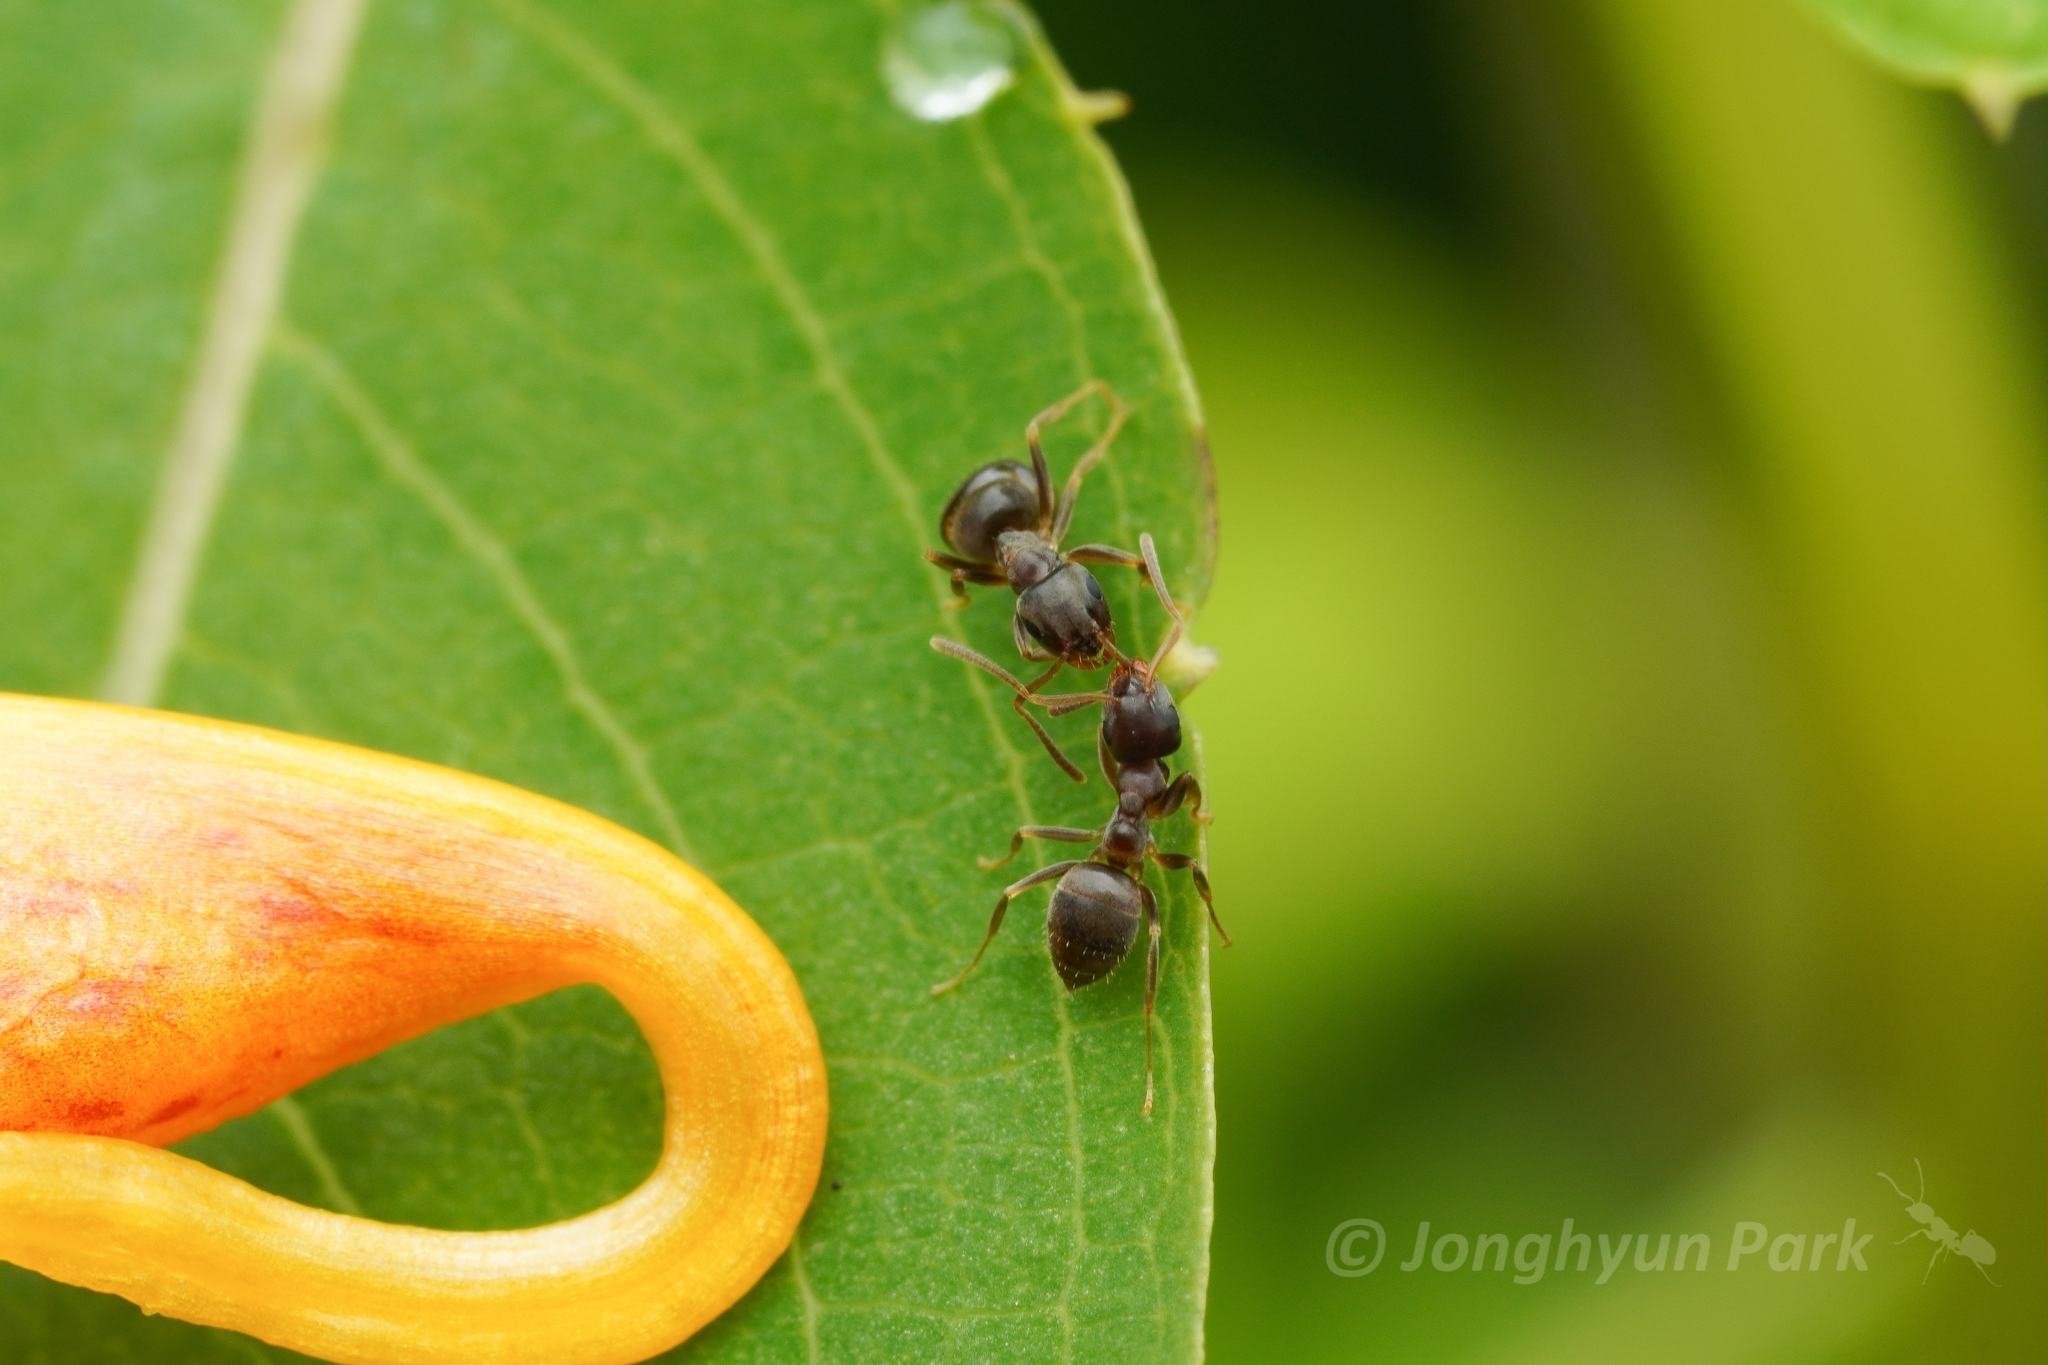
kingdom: Animalia
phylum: Arthropoda
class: Insecta
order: Hymenoptera
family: Formicidae
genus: Lasius
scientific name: Lasius americanus
